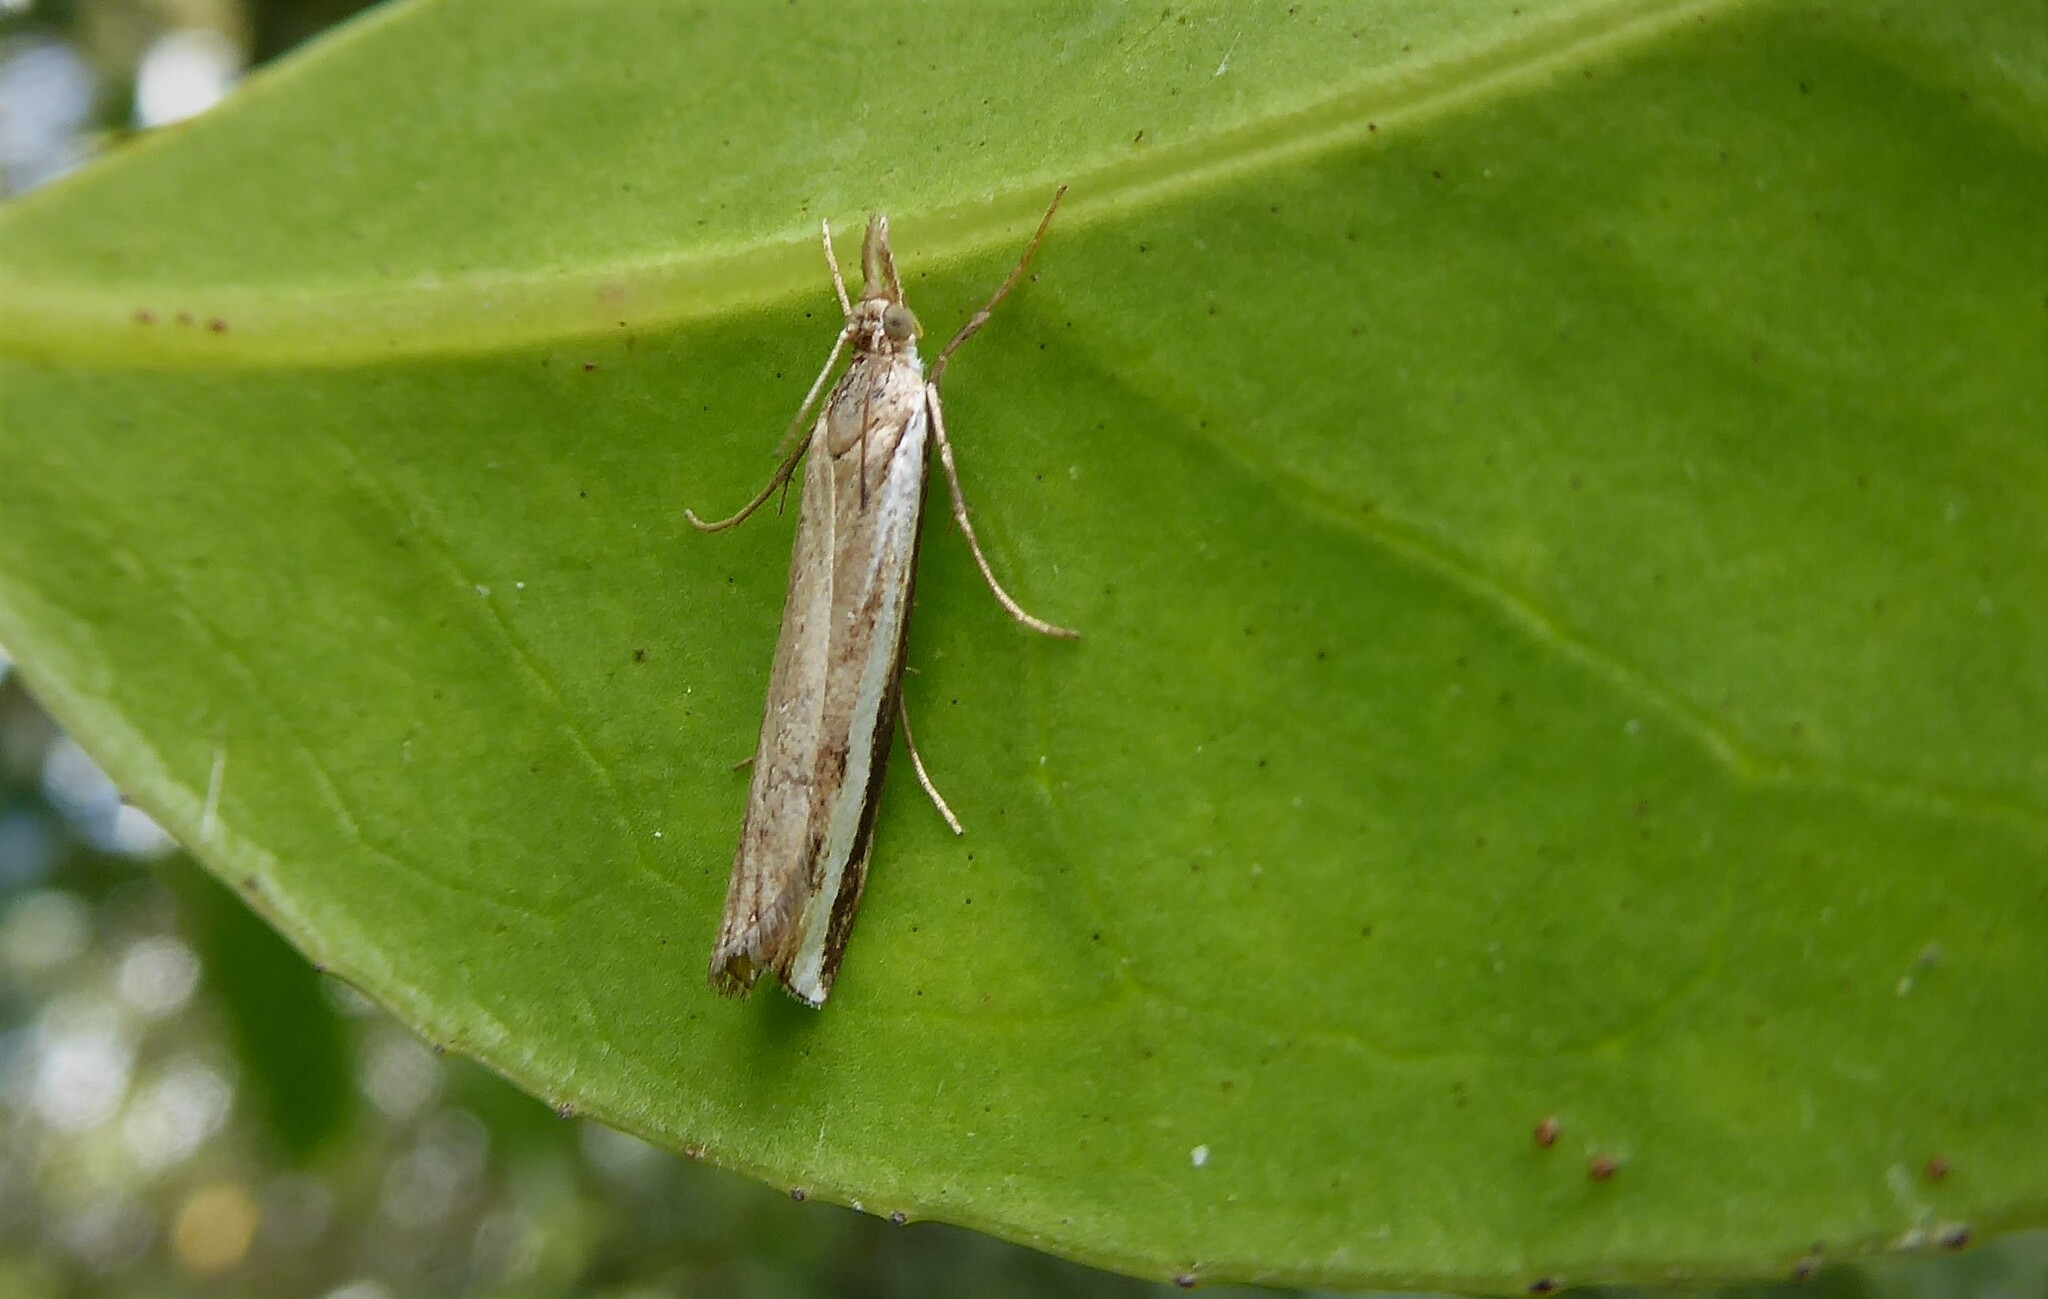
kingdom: Animalia
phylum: Arthropoda
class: Insecta
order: Lepidoptera
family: Crambidae
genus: Orocrambus
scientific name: Orocrambus flexuosellus
